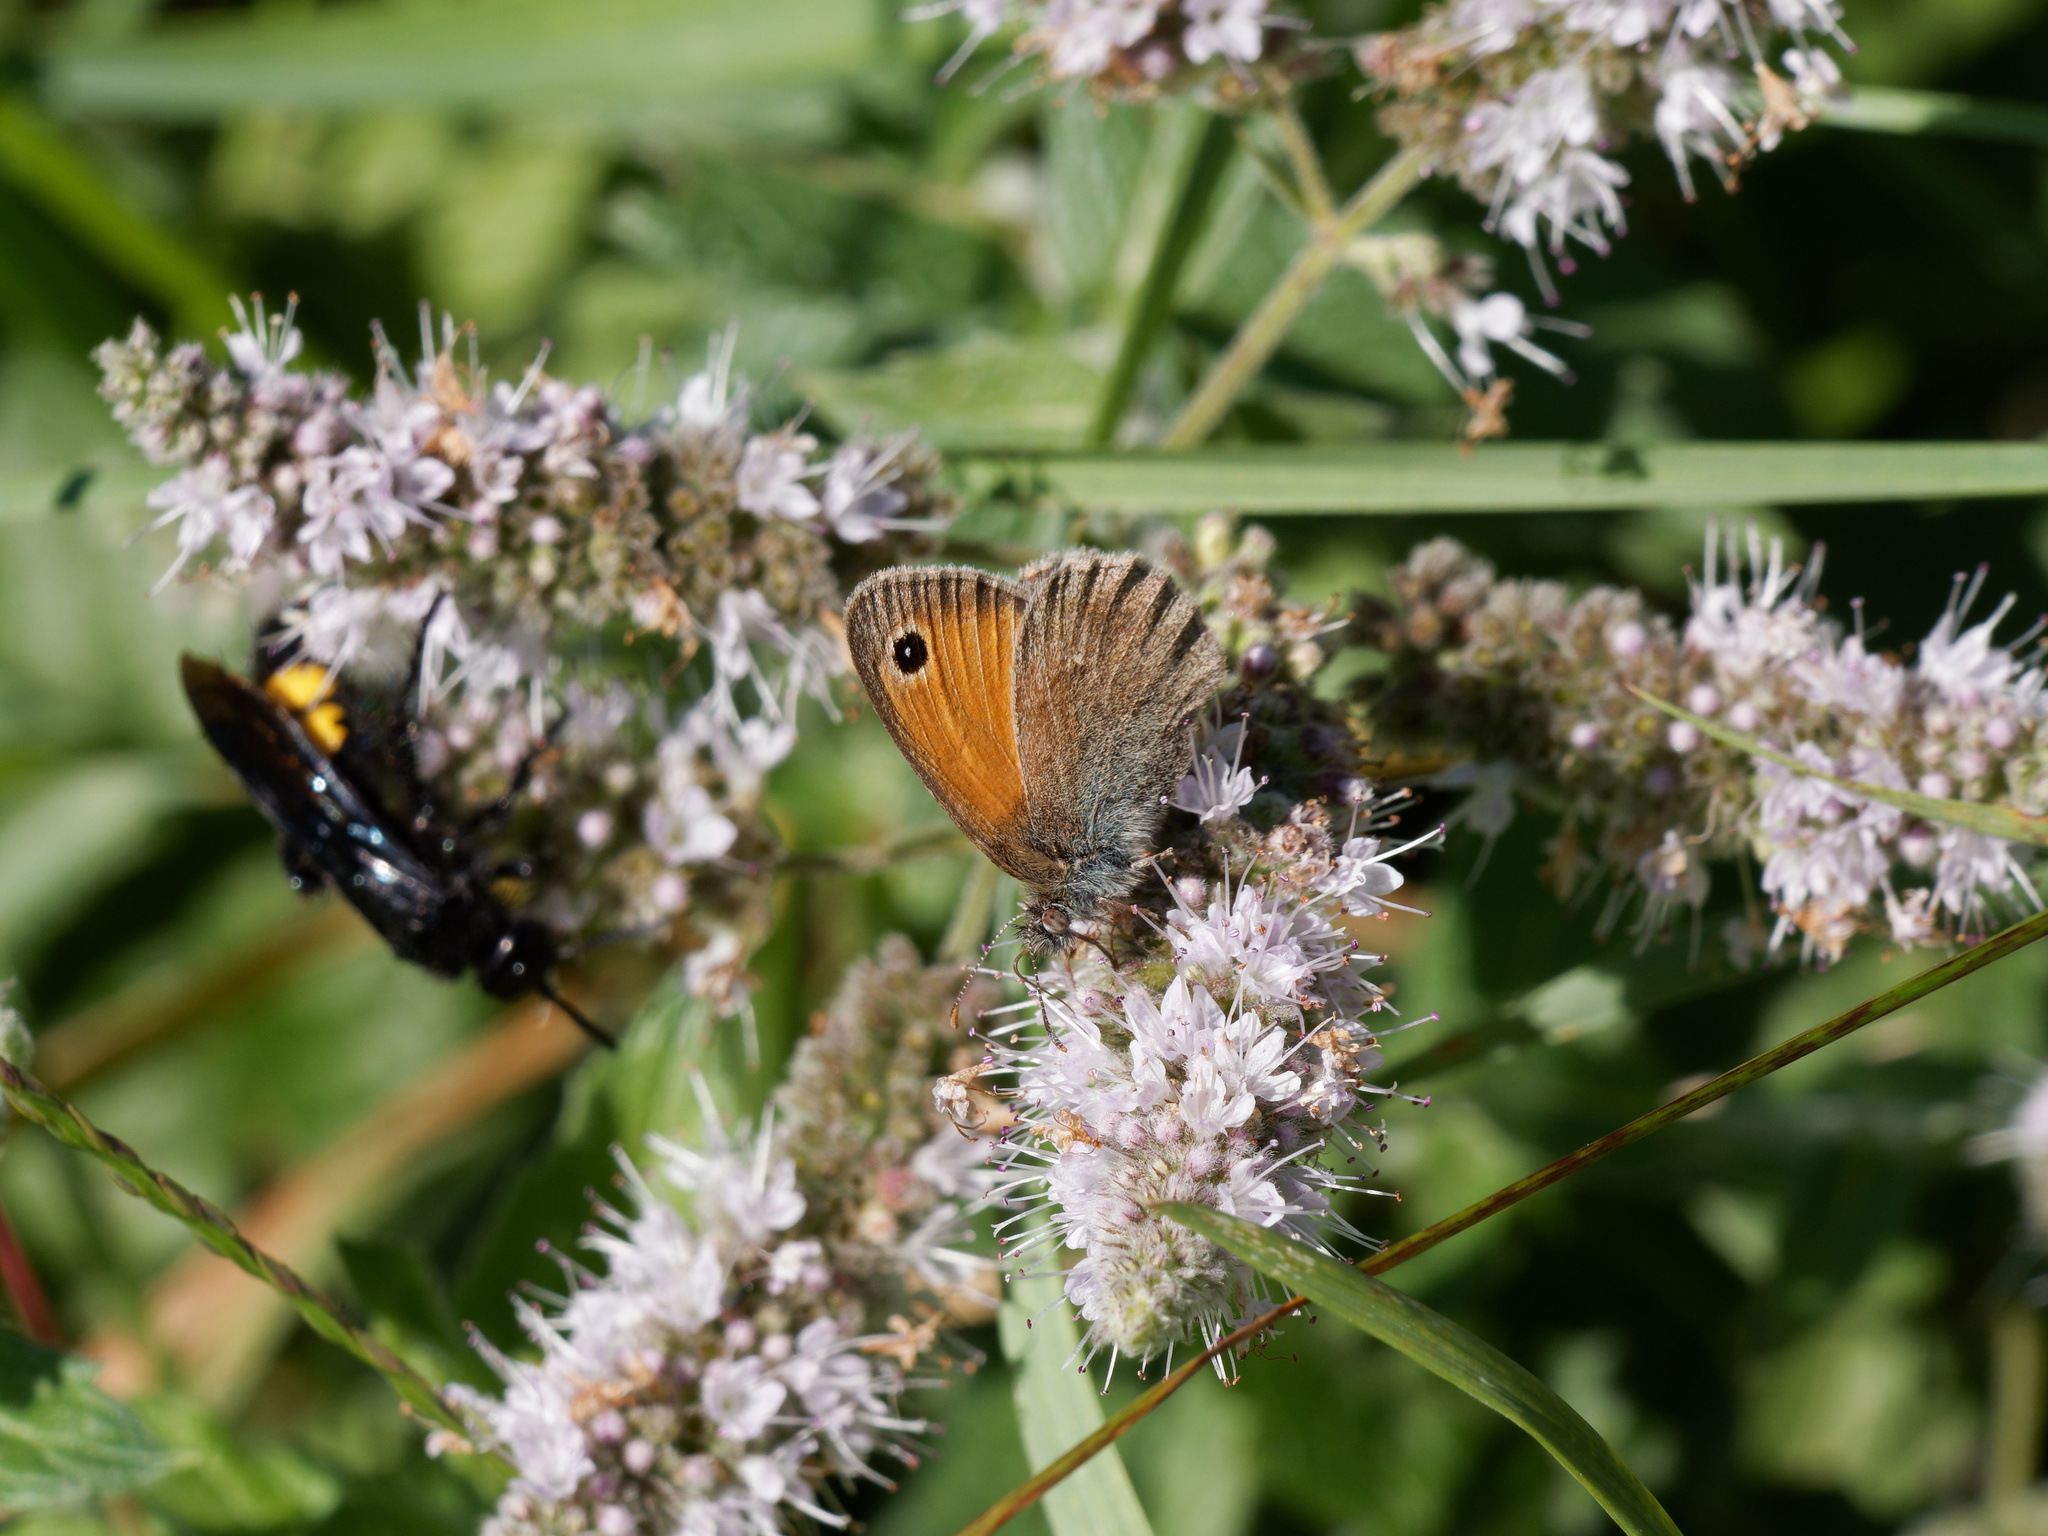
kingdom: Animalia
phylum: Arthropoda
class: Insecta
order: Lepidoptera
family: Nymphalidae
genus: Coenonympha
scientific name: Coenonympha pamphilus
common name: Small heath
